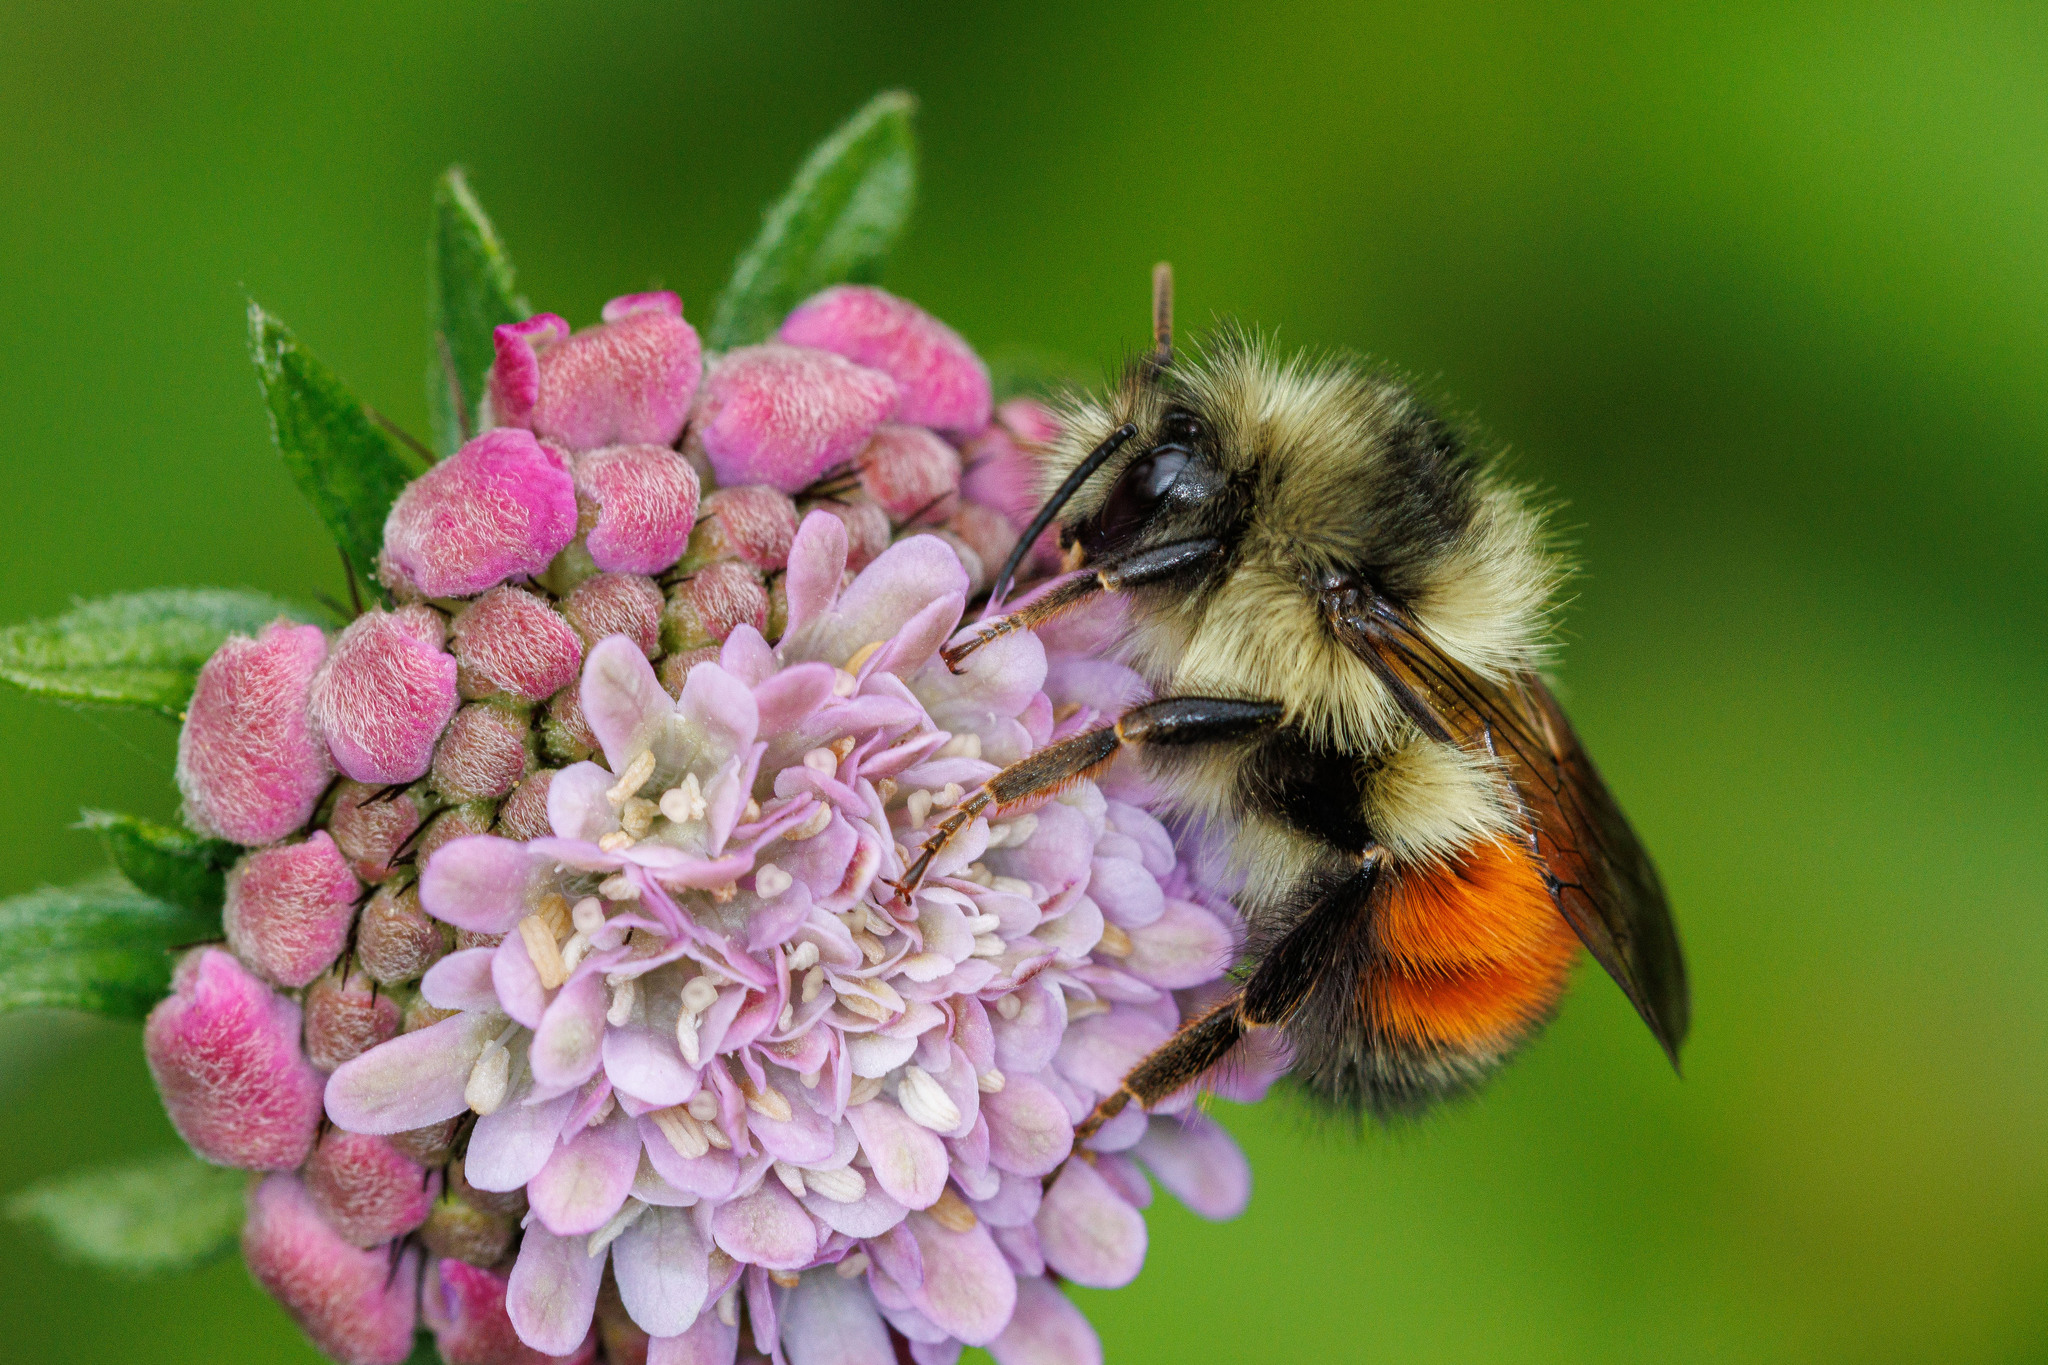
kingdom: Animalia
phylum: Arthropoda
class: Insecta
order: Hymenoptera
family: Apidae
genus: Bombus
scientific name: Bombus melanopygus
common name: Black tail bumble bee
